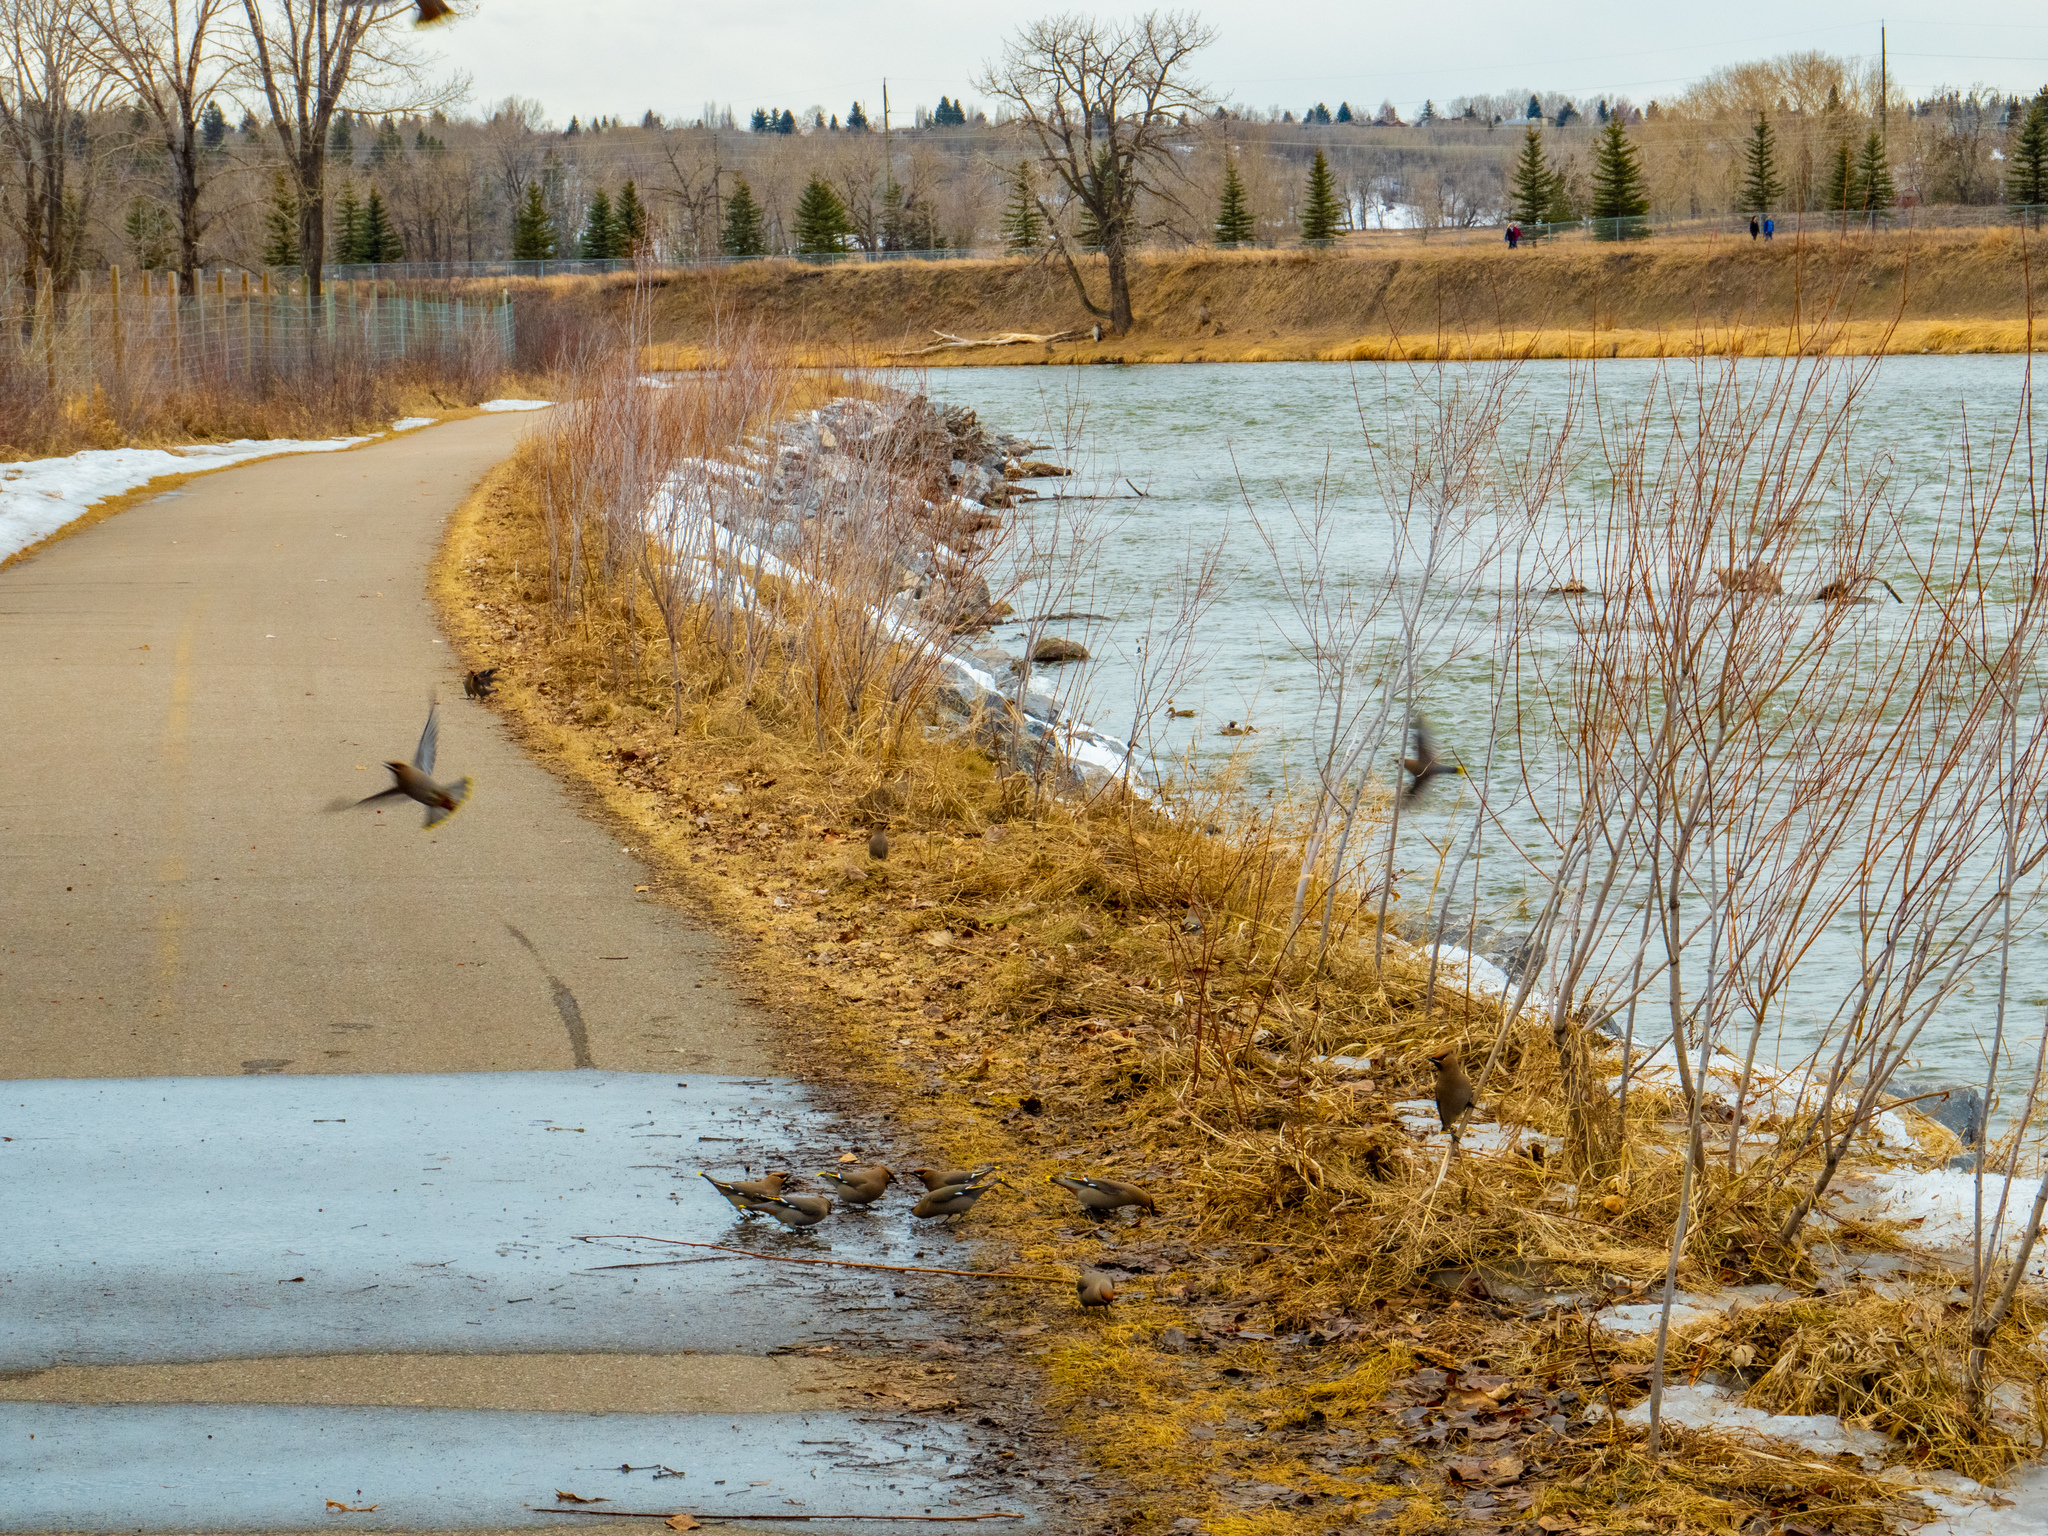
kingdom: Animalia
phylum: Chordata
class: Aves
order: Passeriformes
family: Bombycillidae
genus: Bombycilla
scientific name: Bombycilla garrulus
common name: Bohemian waxwing
